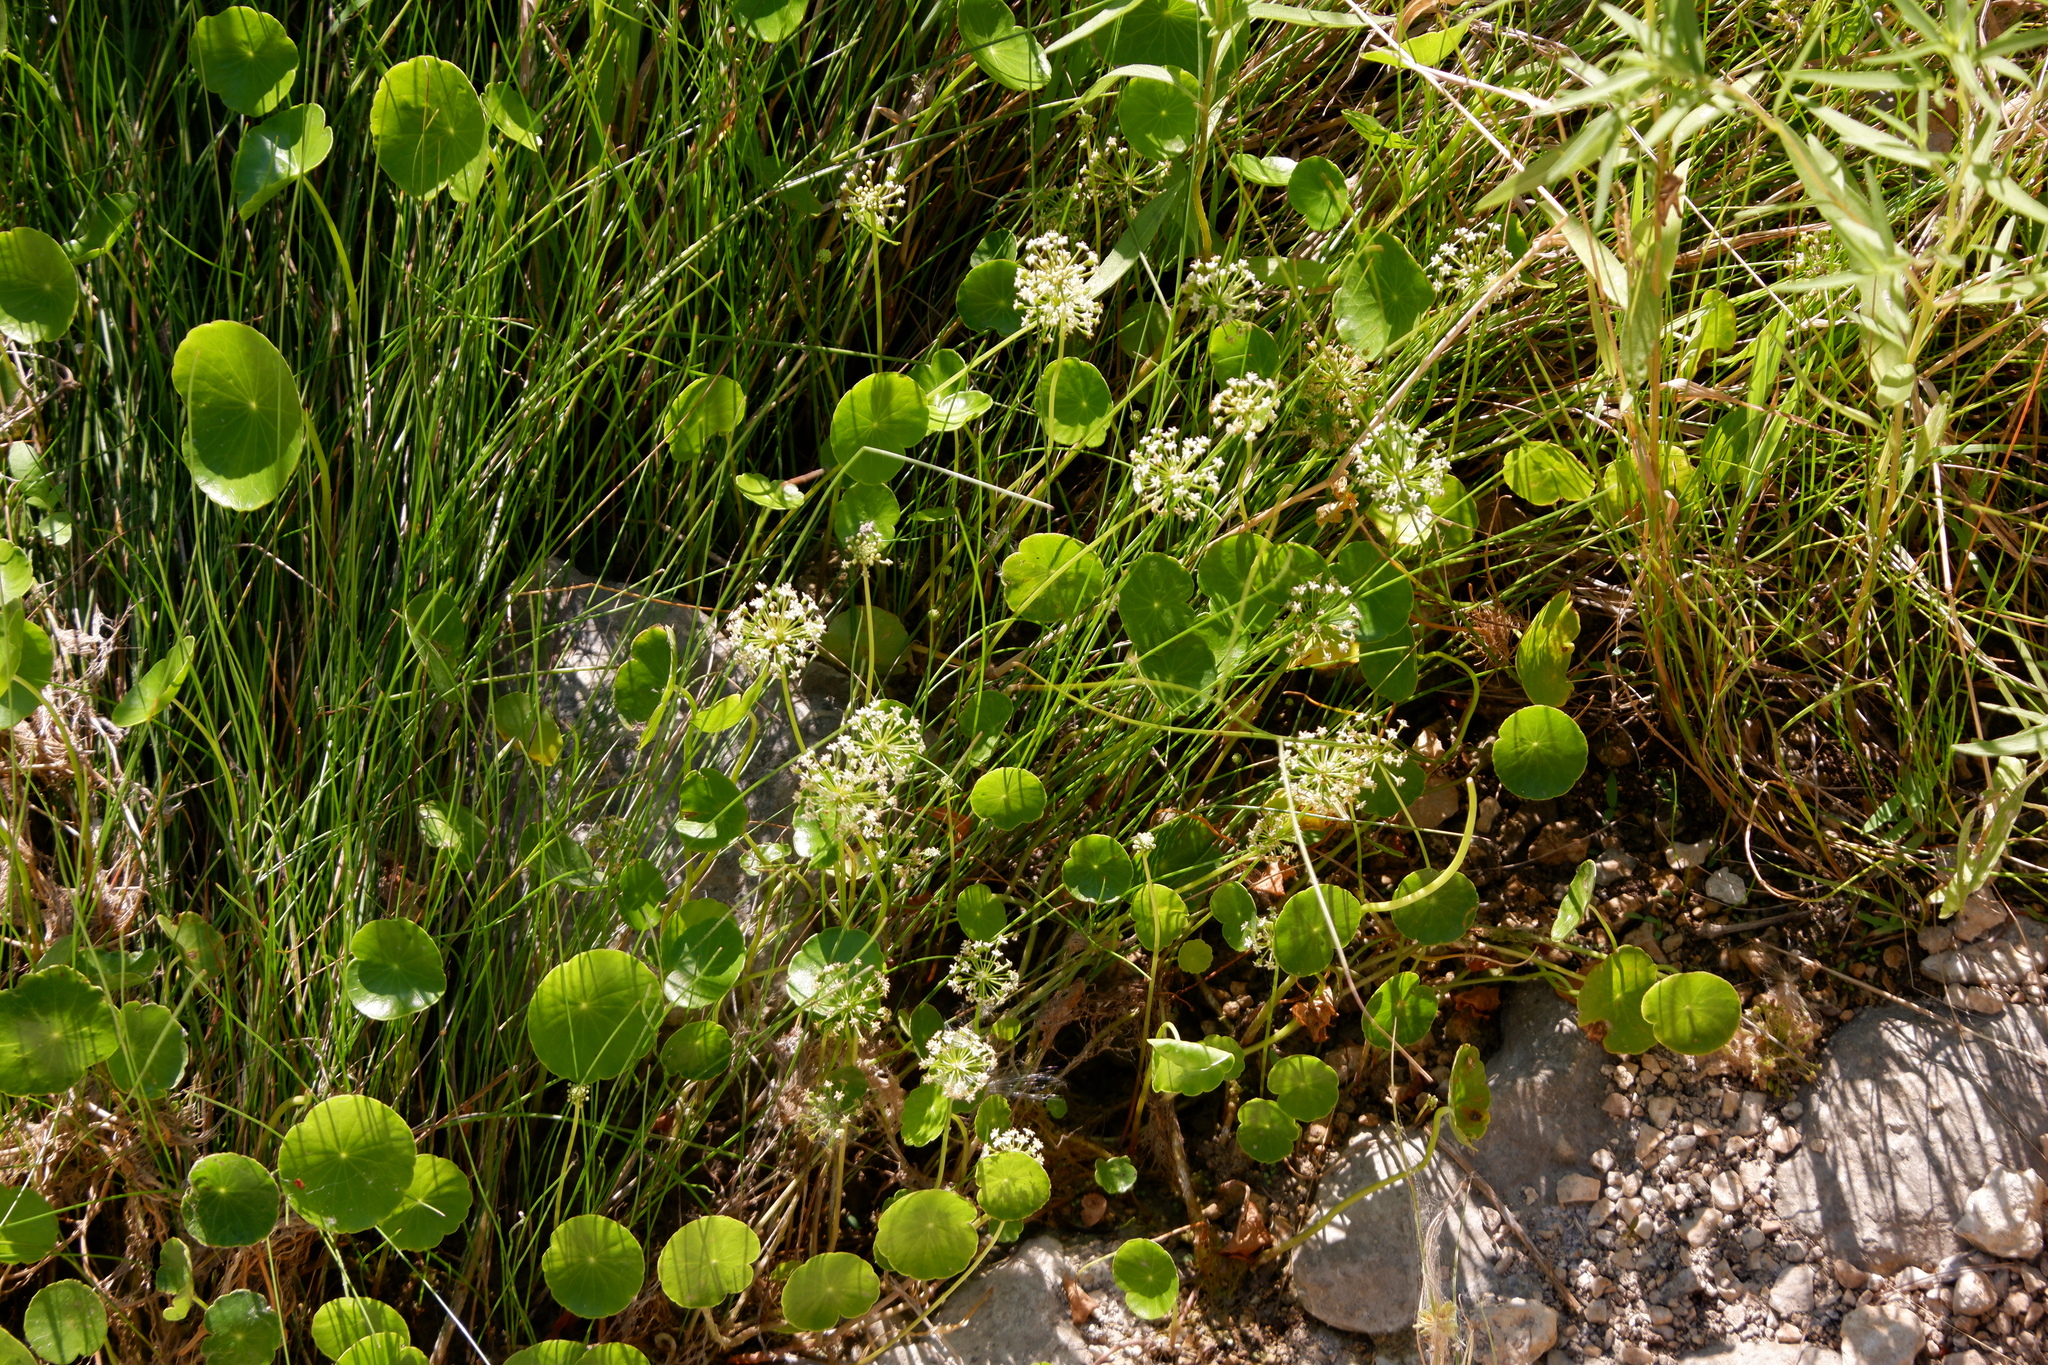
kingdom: Plantae
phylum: Tracheophyta
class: Magnoliopsida
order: Apiales
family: Araliaceae
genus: Hydrocotyle
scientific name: Hydrocotyle umbellata
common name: Water pennywort
